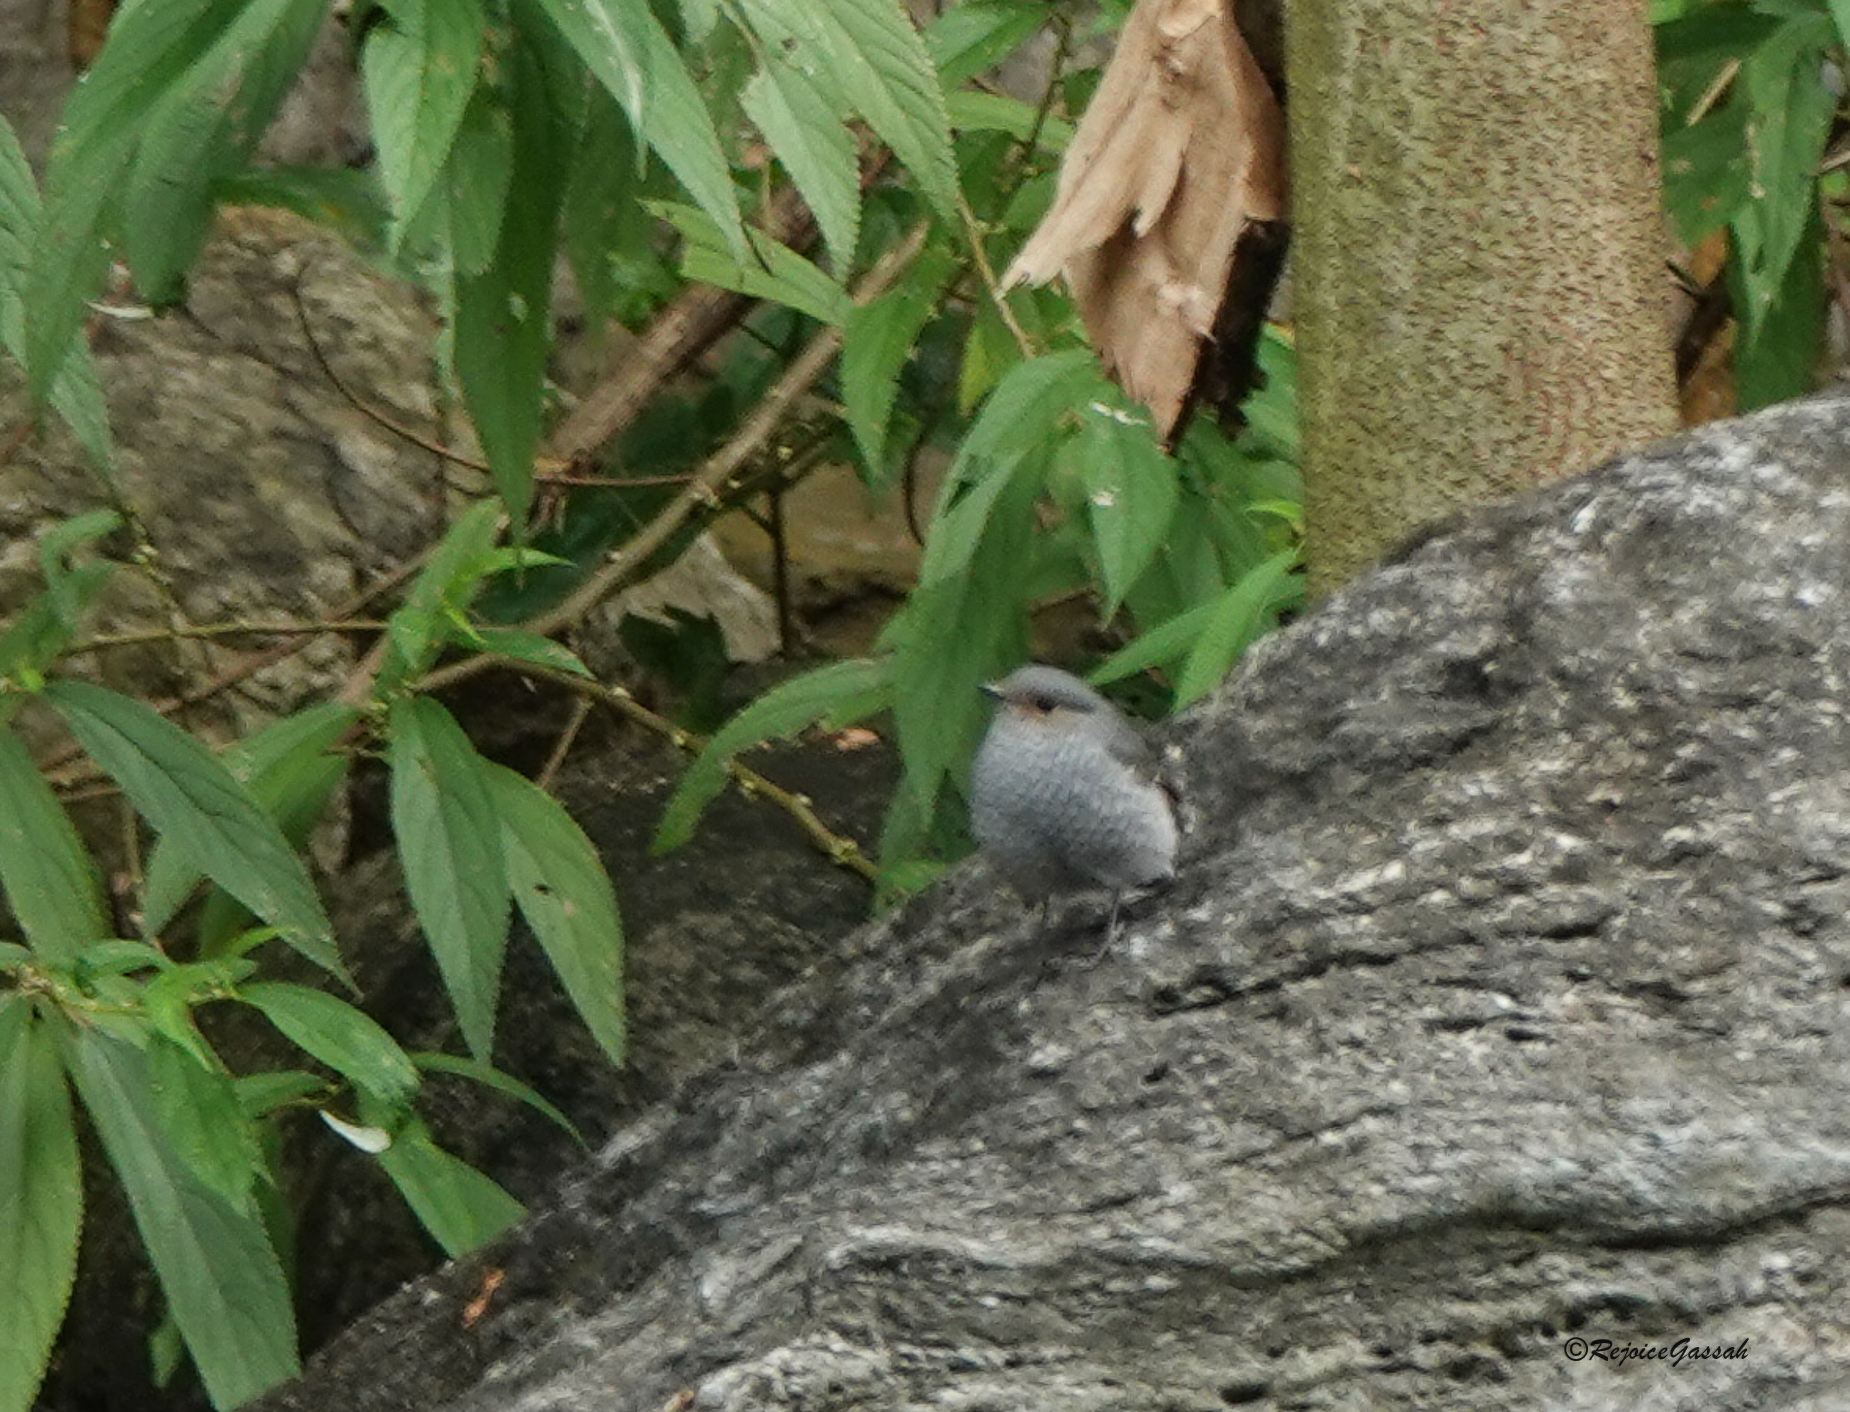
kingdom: Animalia
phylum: Chordata
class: Aves
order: Passeriformes
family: Muscicapidae
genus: Phoenicurus
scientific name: Phoenicurus fuliginosus
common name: Plumbeous water redstart
